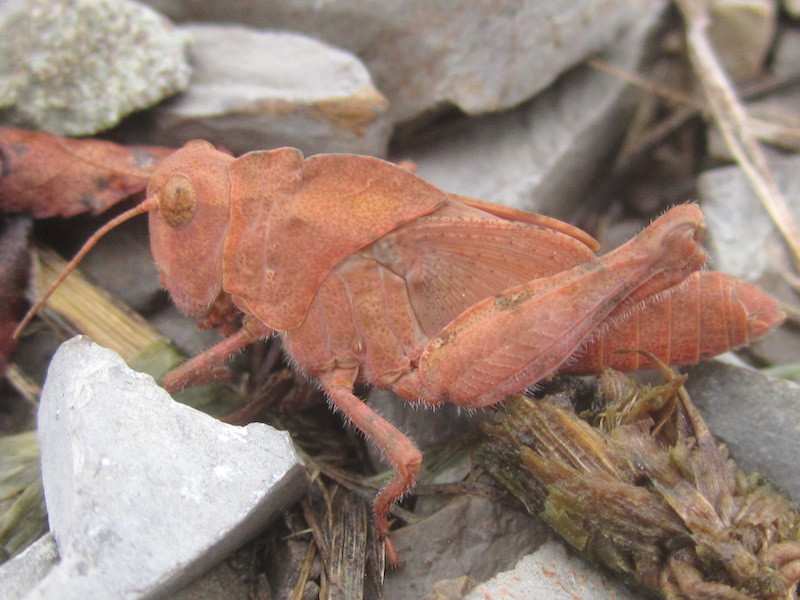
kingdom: Animalia
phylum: Arthropoda
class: Insecta
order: Orthoptera
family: Acrididae
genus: Dissosteira
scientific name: Dissosteira carolina
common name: Carolina grasshopper
